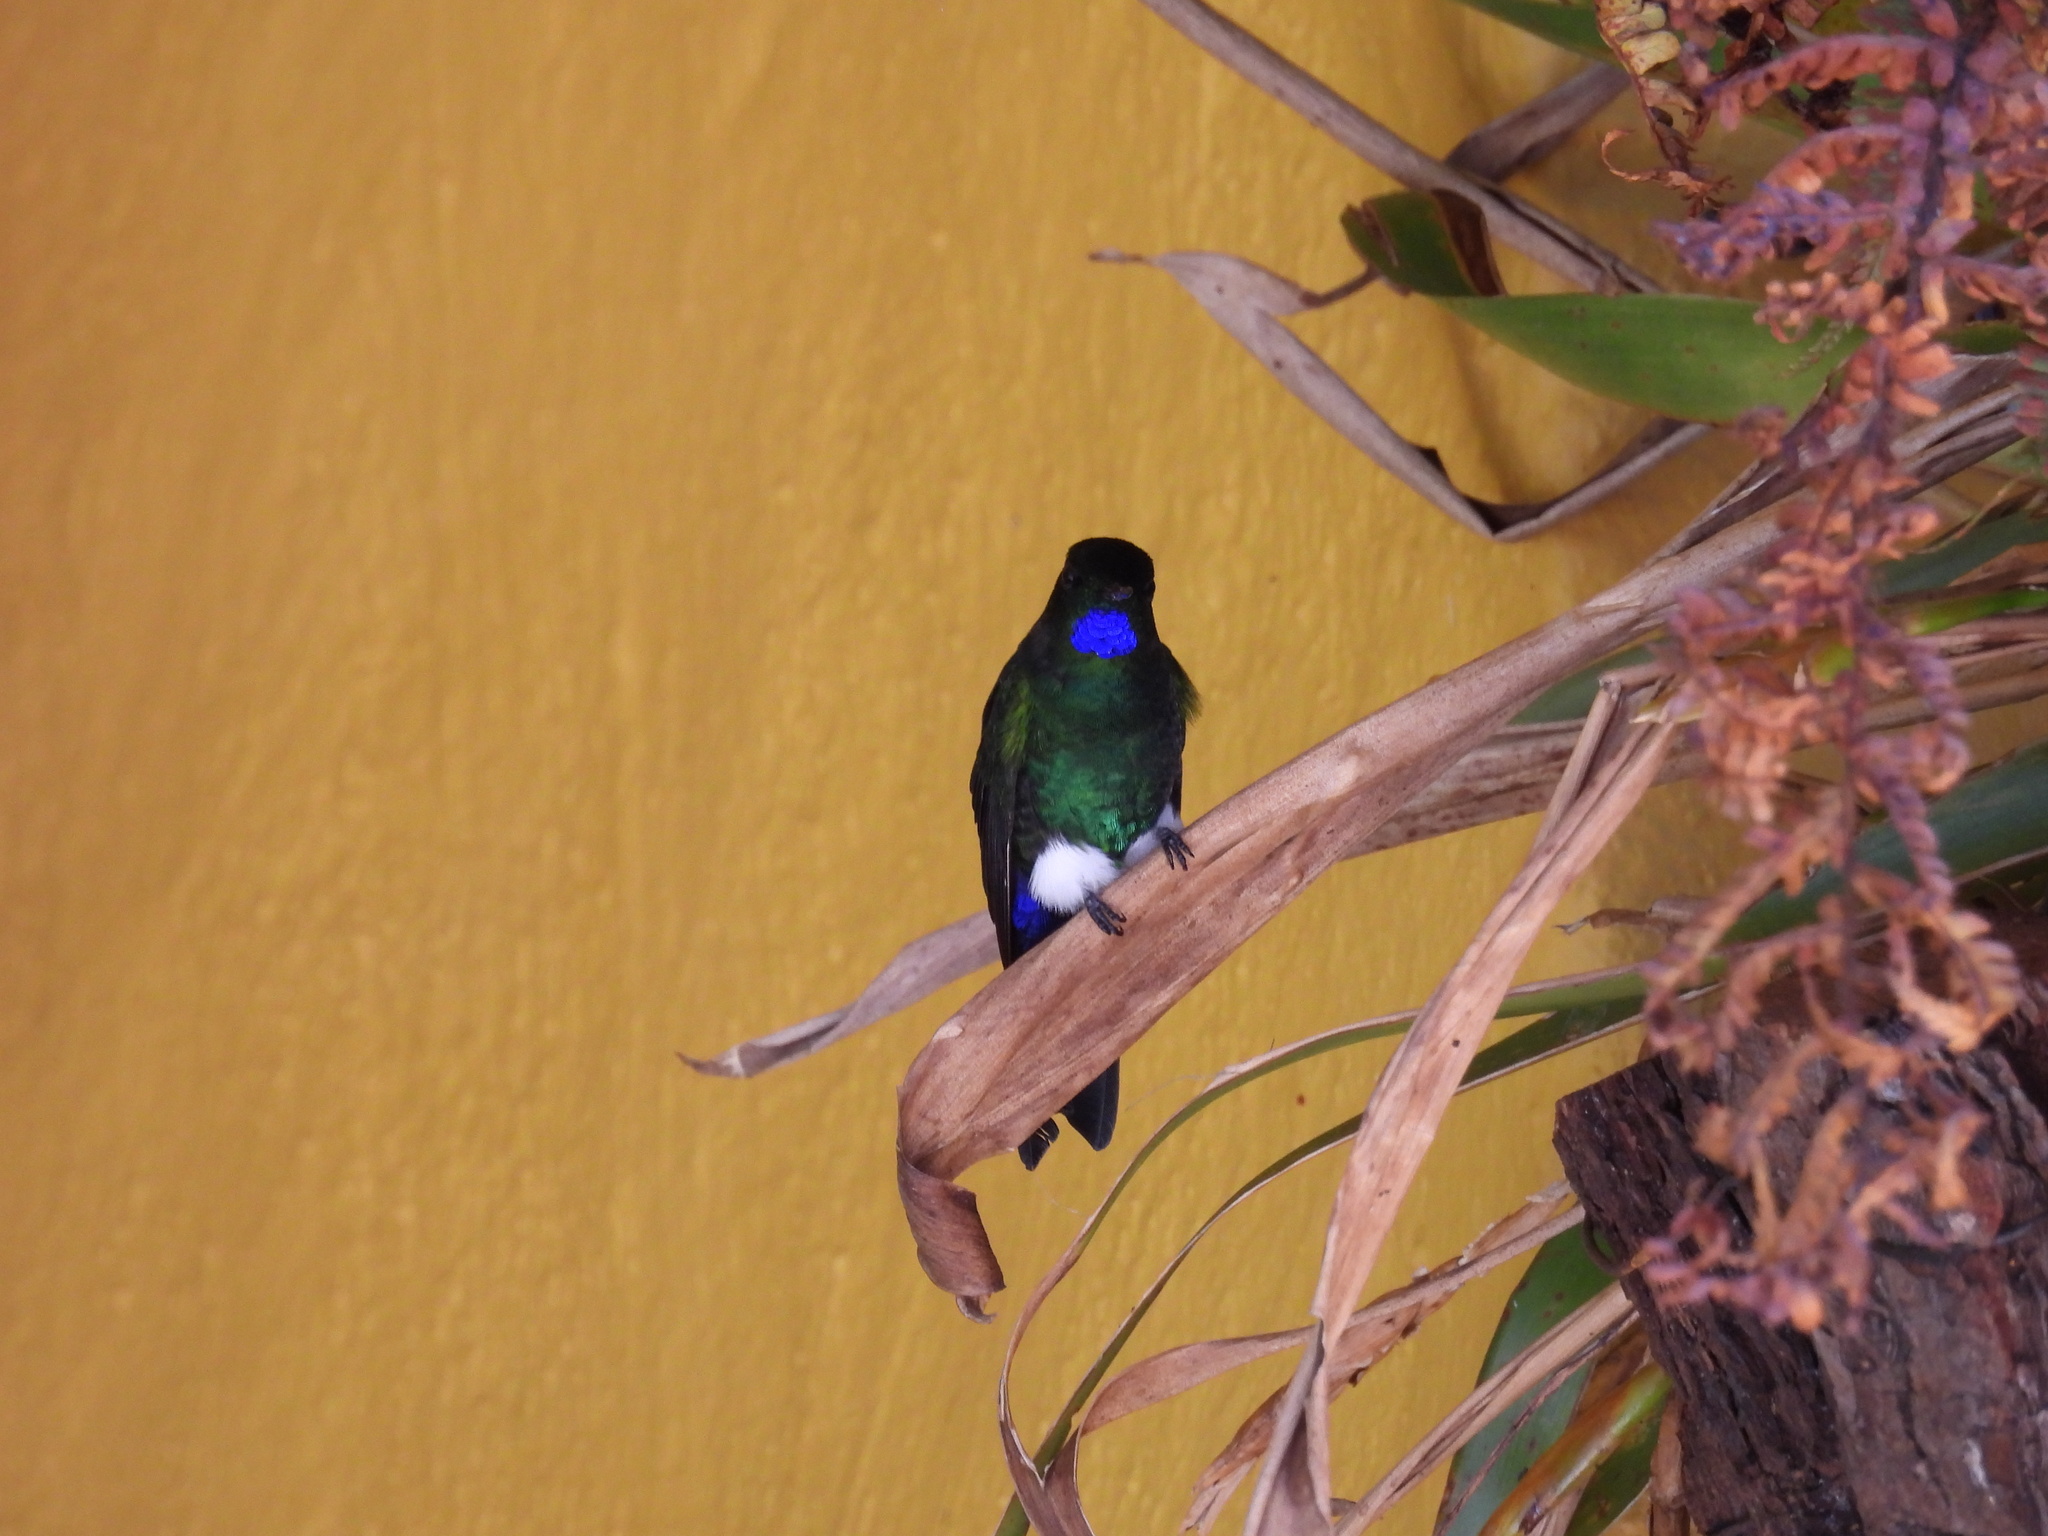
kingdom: Animalia
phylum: Chordata
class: Aves
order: Apodiformes
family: Trochilidae
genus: Eriocnemis
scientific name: Eriocnemis vestita
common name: Glowing puffleg
